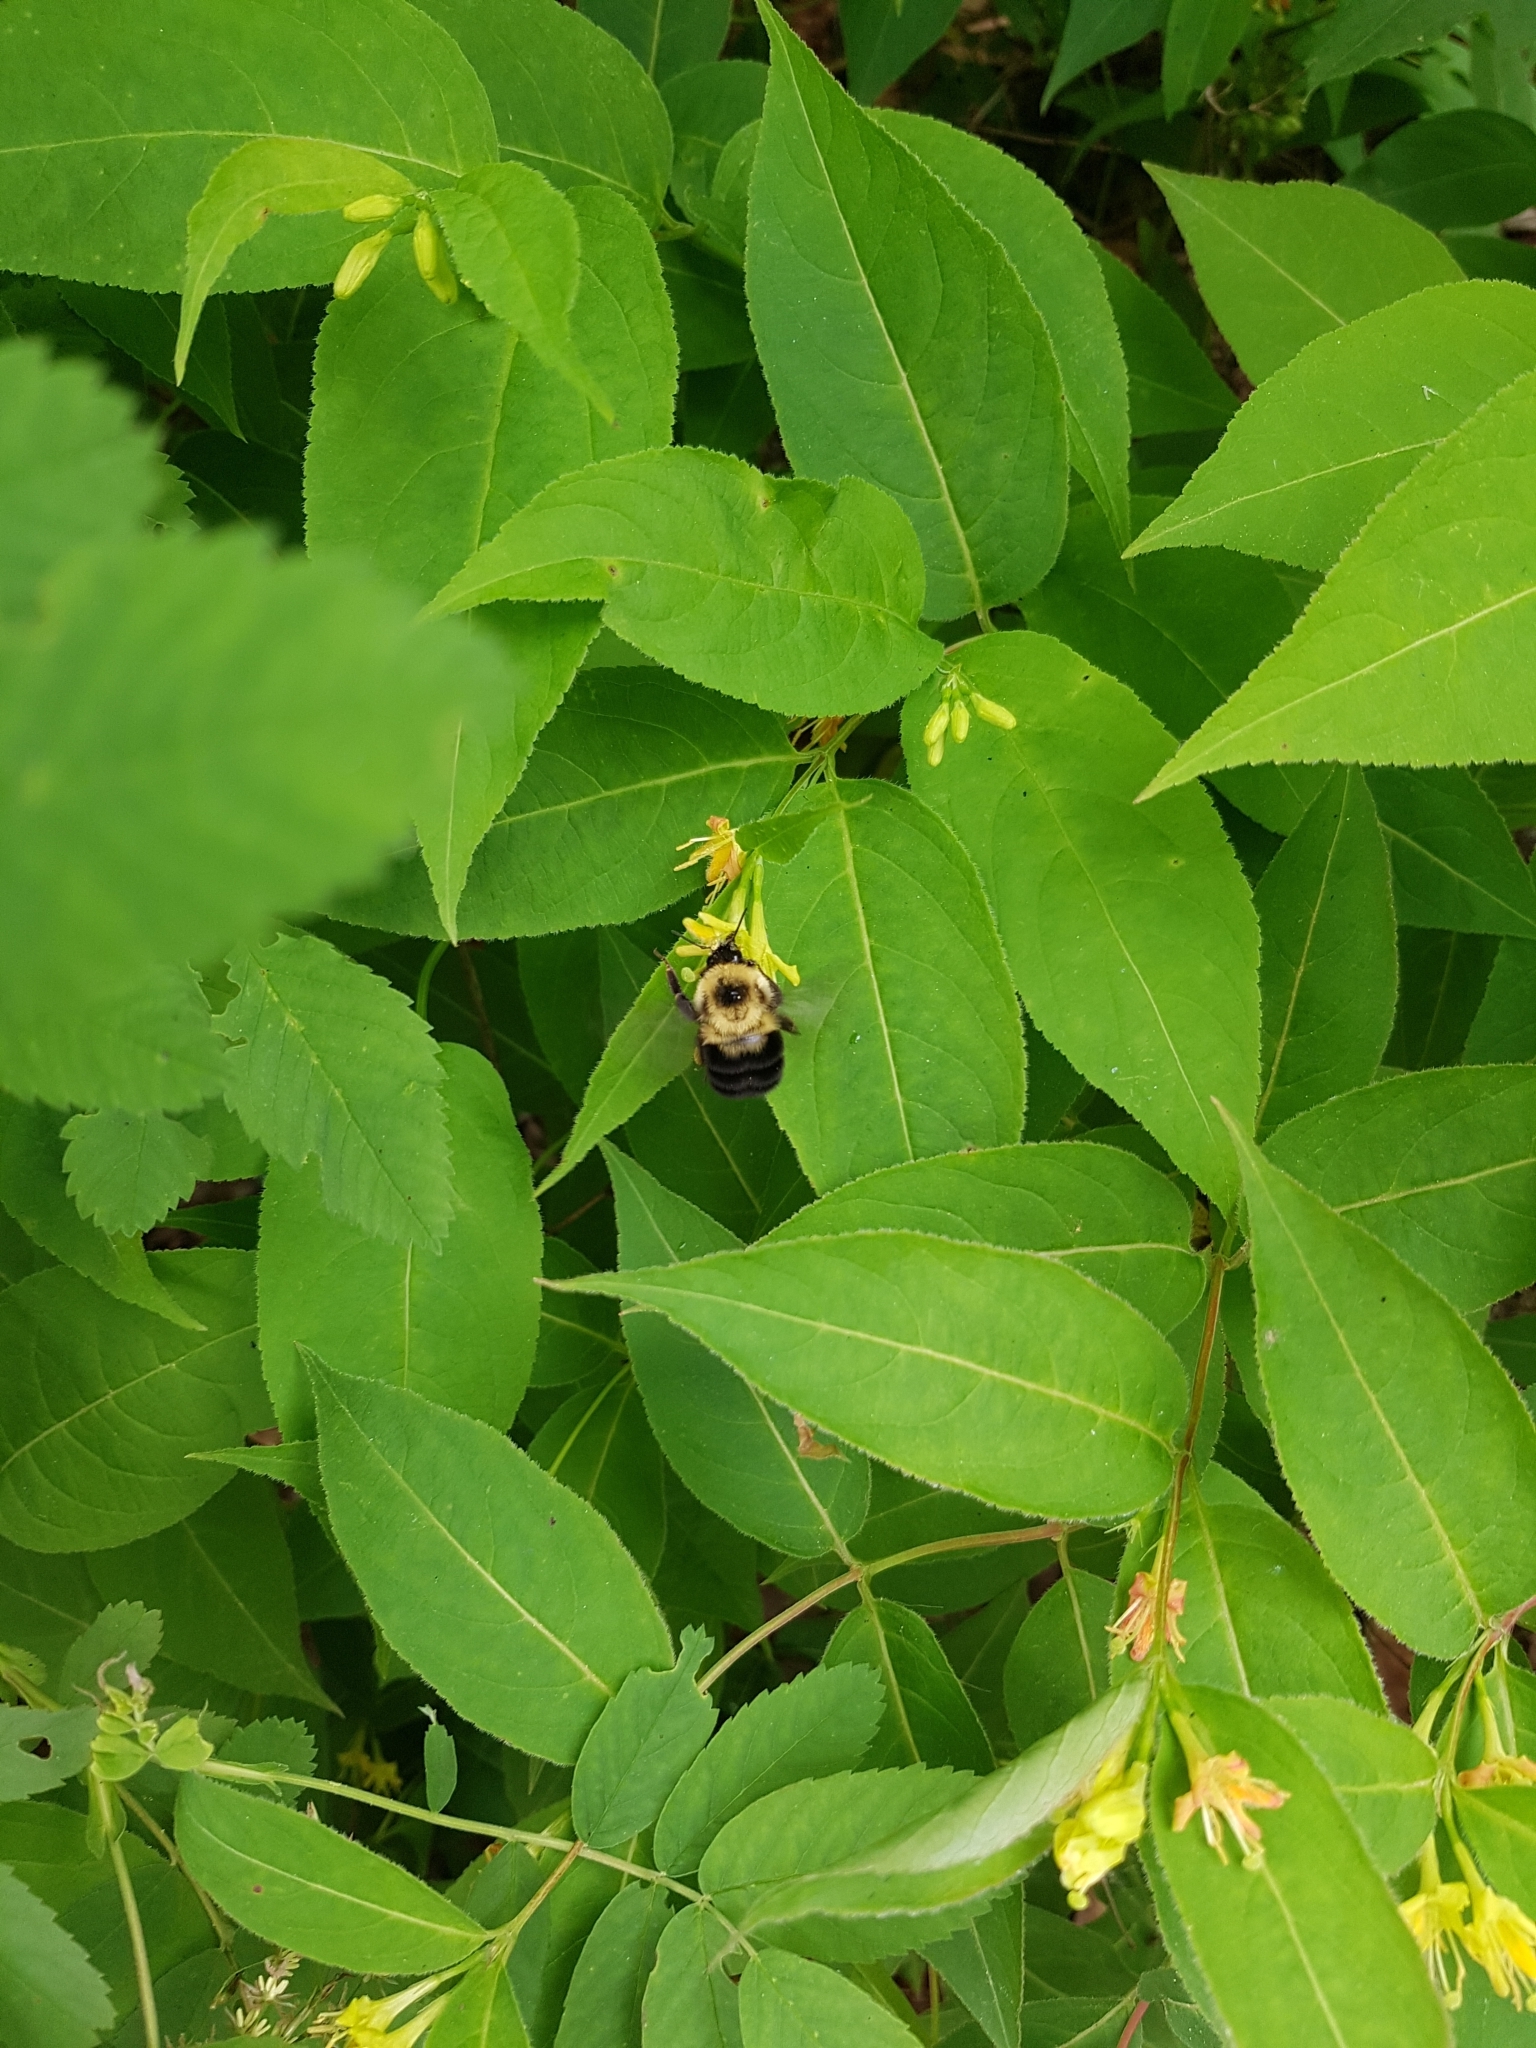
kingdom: Animalia
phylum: Arthropoda
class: Insecta
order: Hymenoptera
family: Apidae
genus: Bombus
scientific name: Bombus bimaculatus
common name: Two-spotted bumble bee
